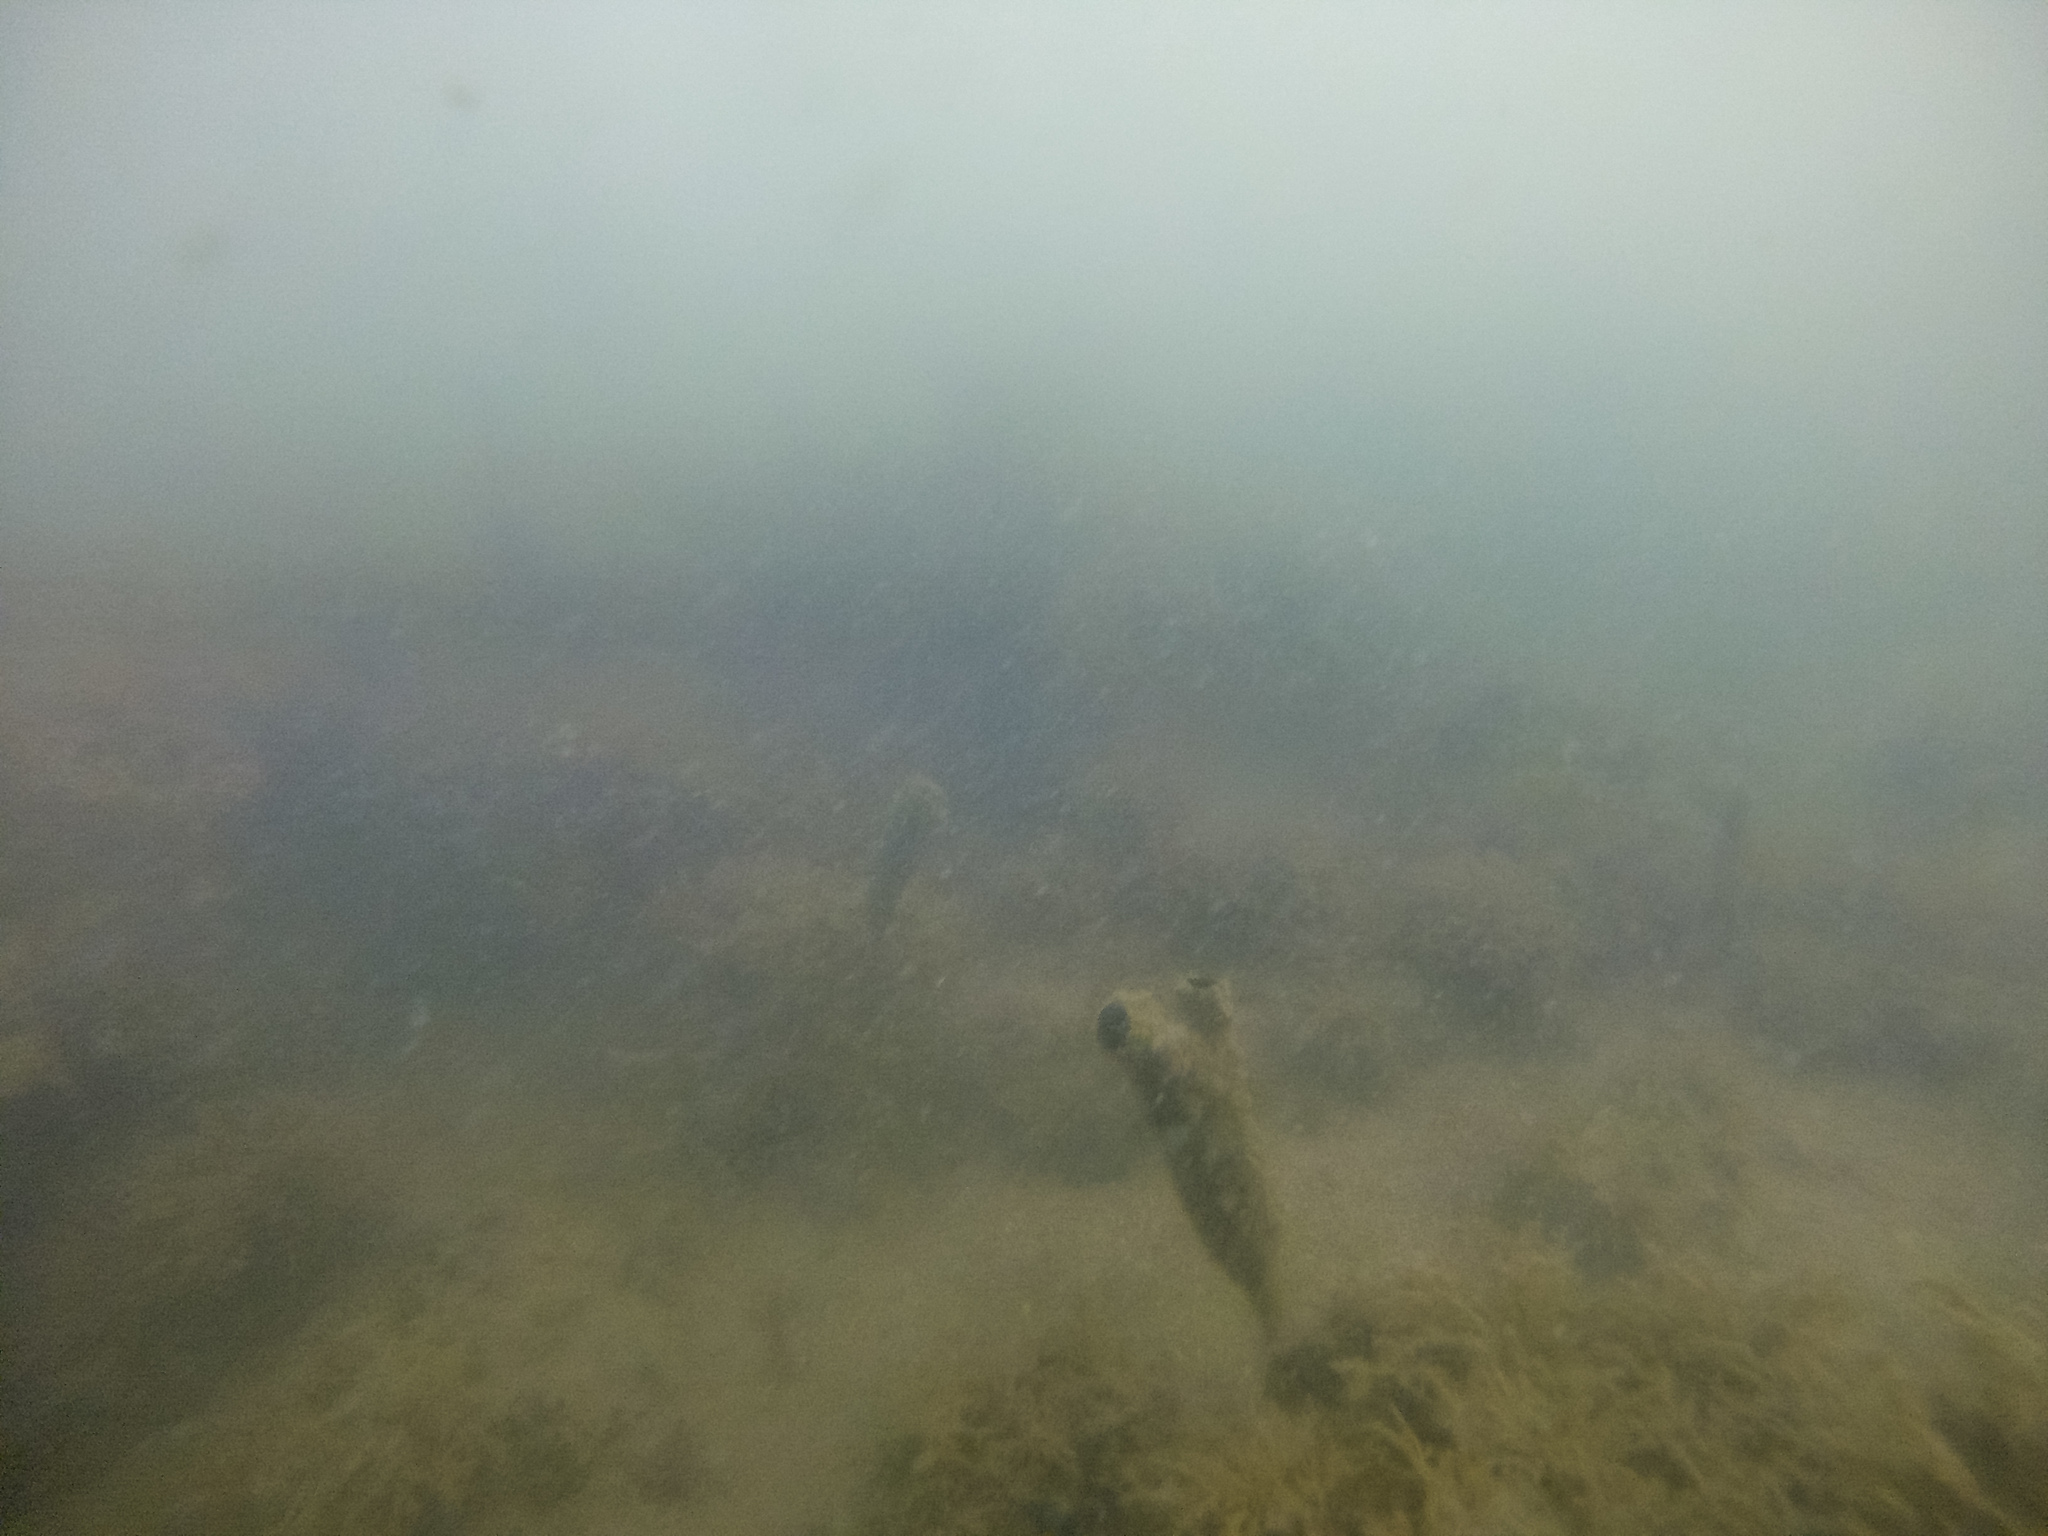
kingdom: Animalia
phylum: Chordata
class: Ascidiacea
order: Stolidobranchia
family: Styelidae
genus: Styela
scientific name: Styela clava
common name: Leathery sea squirt
